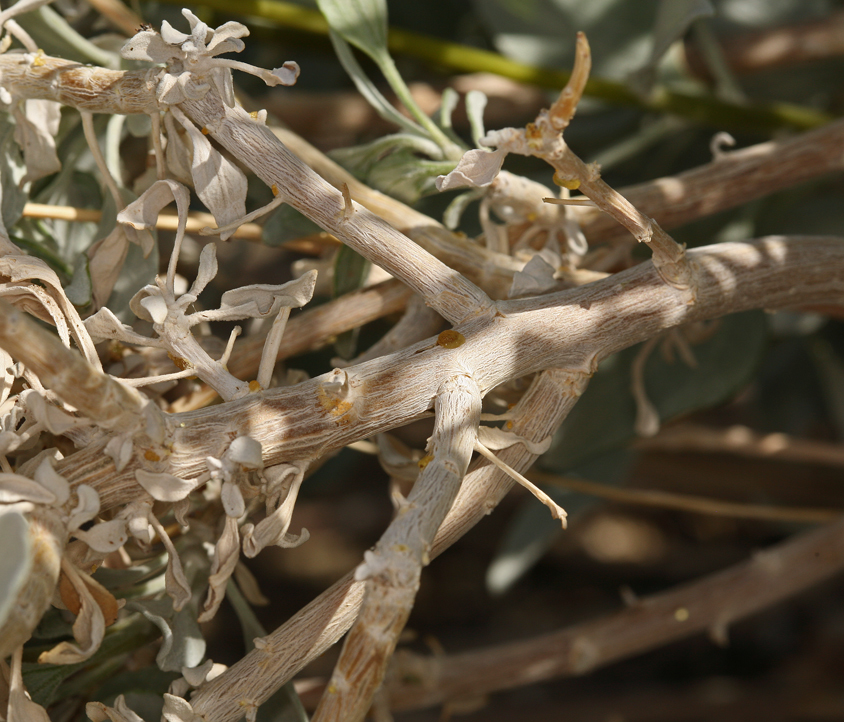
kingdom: Plantae
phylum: Tracheophyta
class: Magnoliopsida
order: Asterales
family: Asteraceae
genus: Encelia
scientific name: Encelia farinosa
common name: Brittlebush
